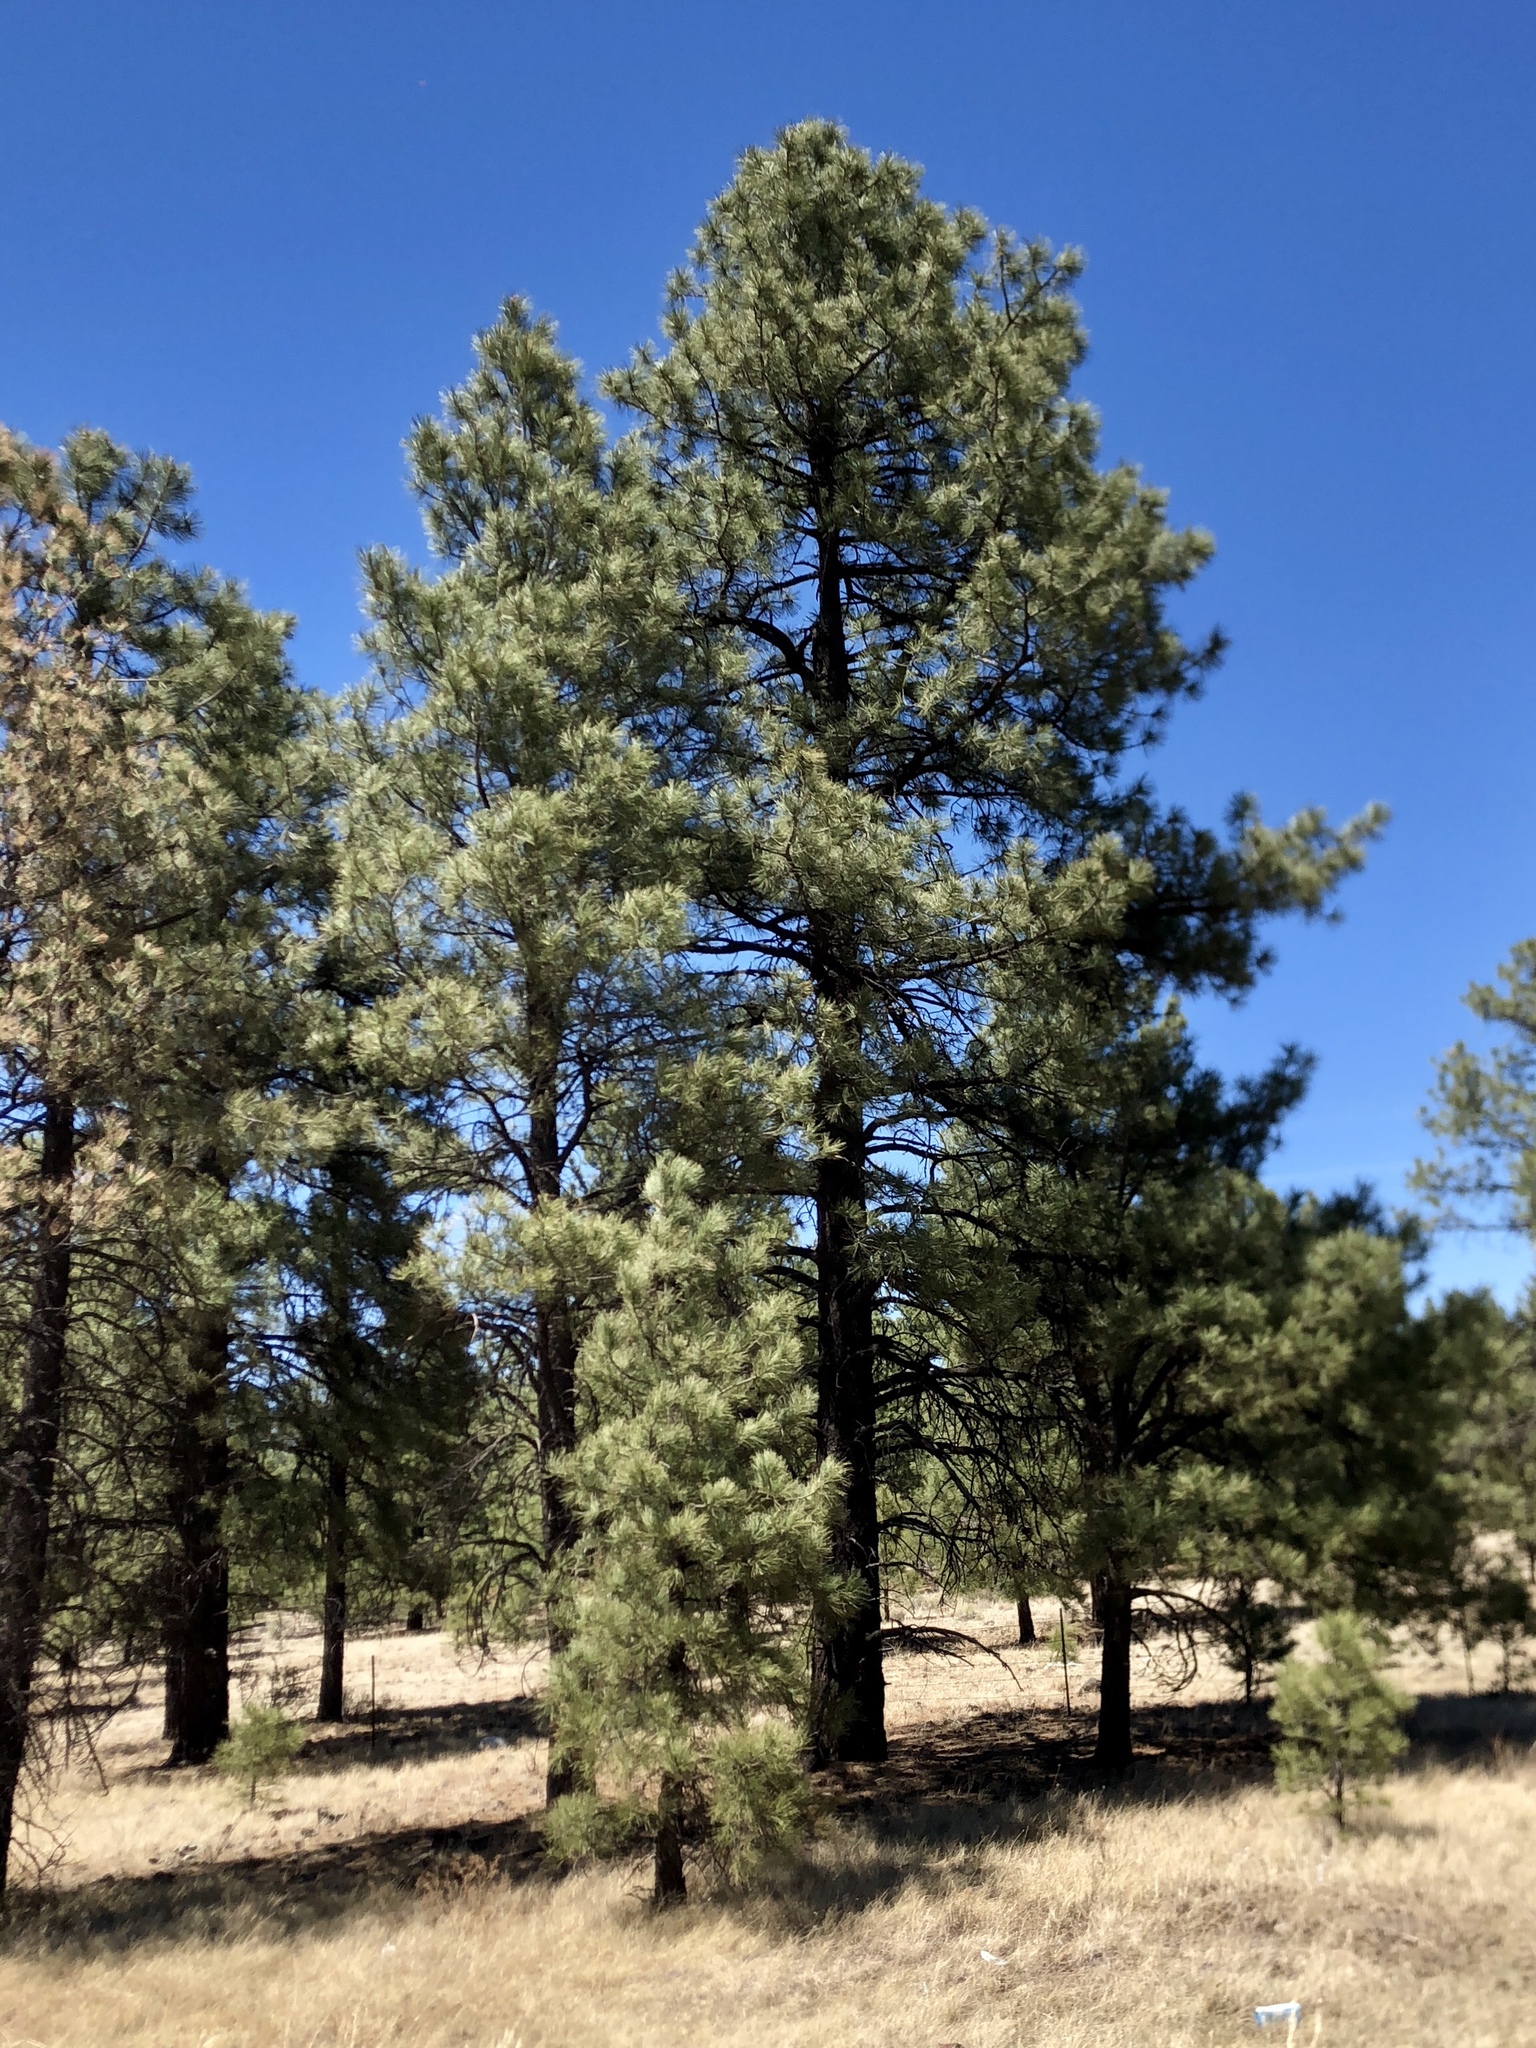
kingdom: Plantae
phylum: Tracheophyta
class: Pinopsida
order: Pinales
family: Pinaceae
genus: Pinus
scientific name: Pinus ponderosa
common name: Western yellow-pine
